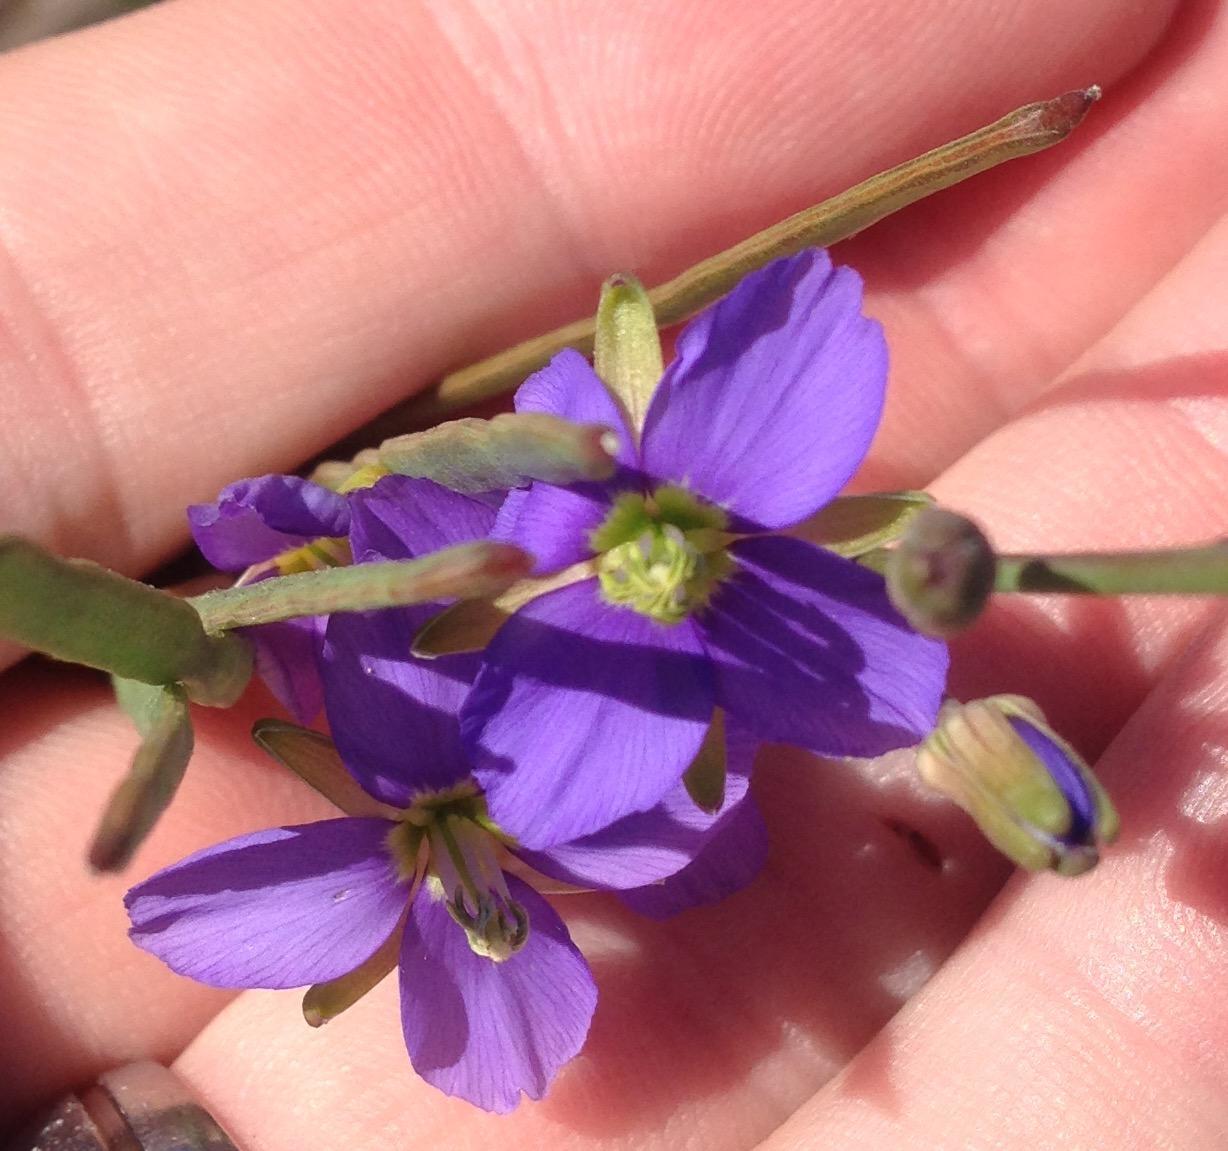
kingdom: Plantae
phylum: Tracheophyta
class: Magnoliopsida
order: Brassicales
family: Brassicaceae
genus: Heliophila
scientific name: Heliophila linearis
